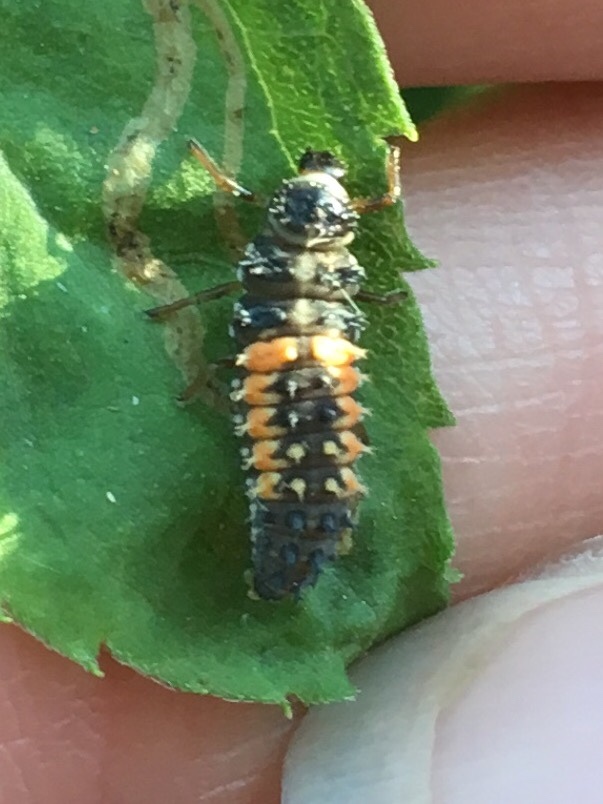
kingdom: Animalia
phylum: Arthropoda
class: Insecta
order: Coleoptera
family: Coccinellidae
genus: Harmonia
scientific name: Harmonia axyridis
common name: Harlequin ladybird
